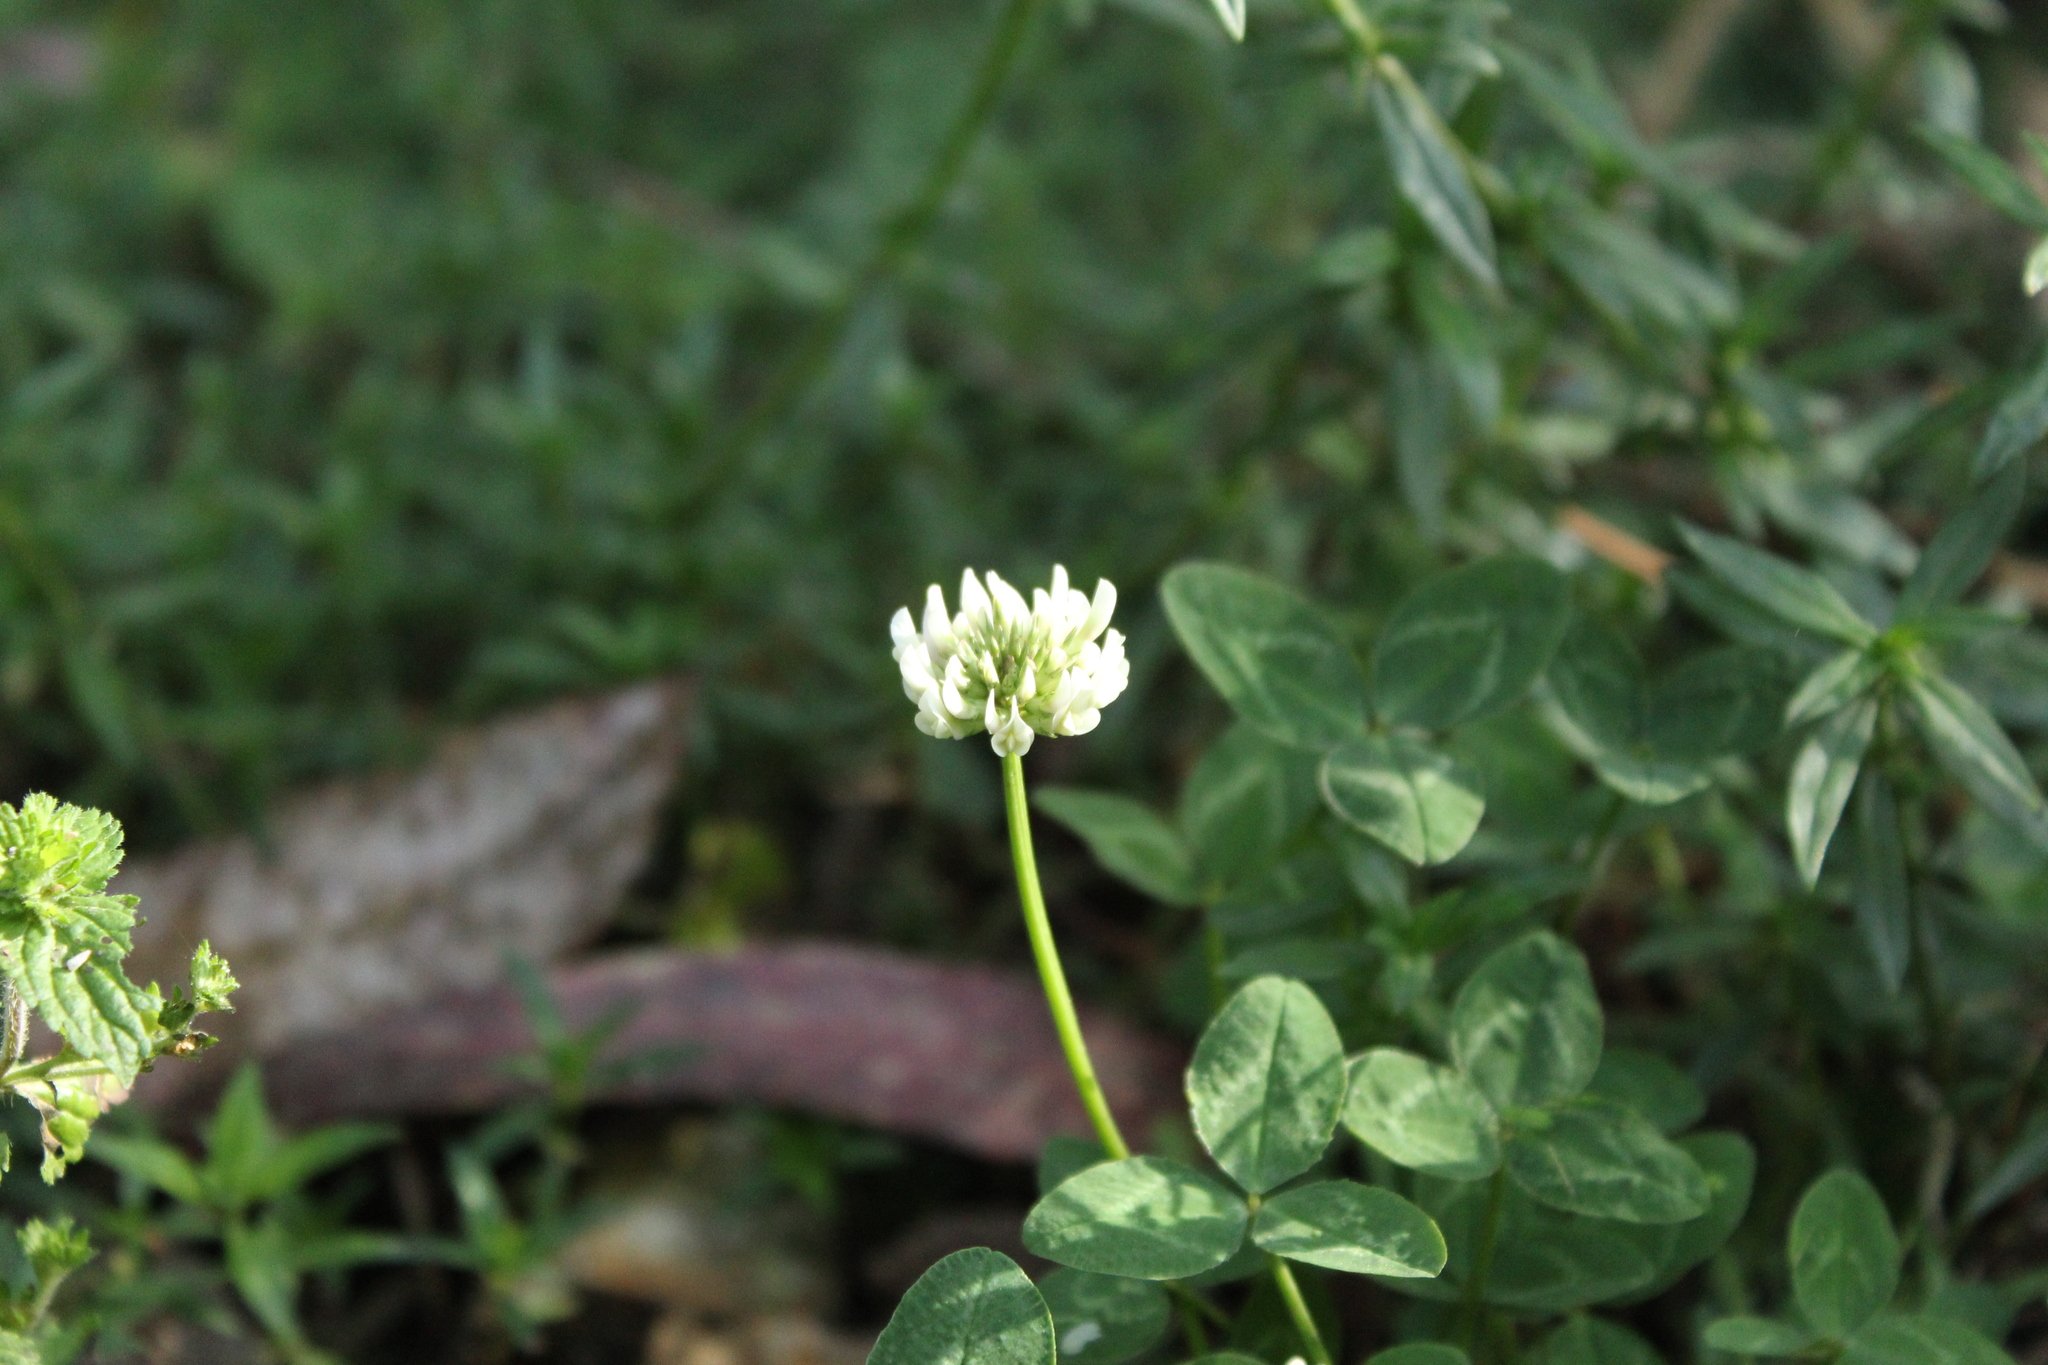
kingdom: Plantae
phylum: Tracheophyta
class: Magnoliopsida
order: Fabales
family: Fabaceae
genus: Trifolium
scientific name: Trifolium repens
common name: White clover
